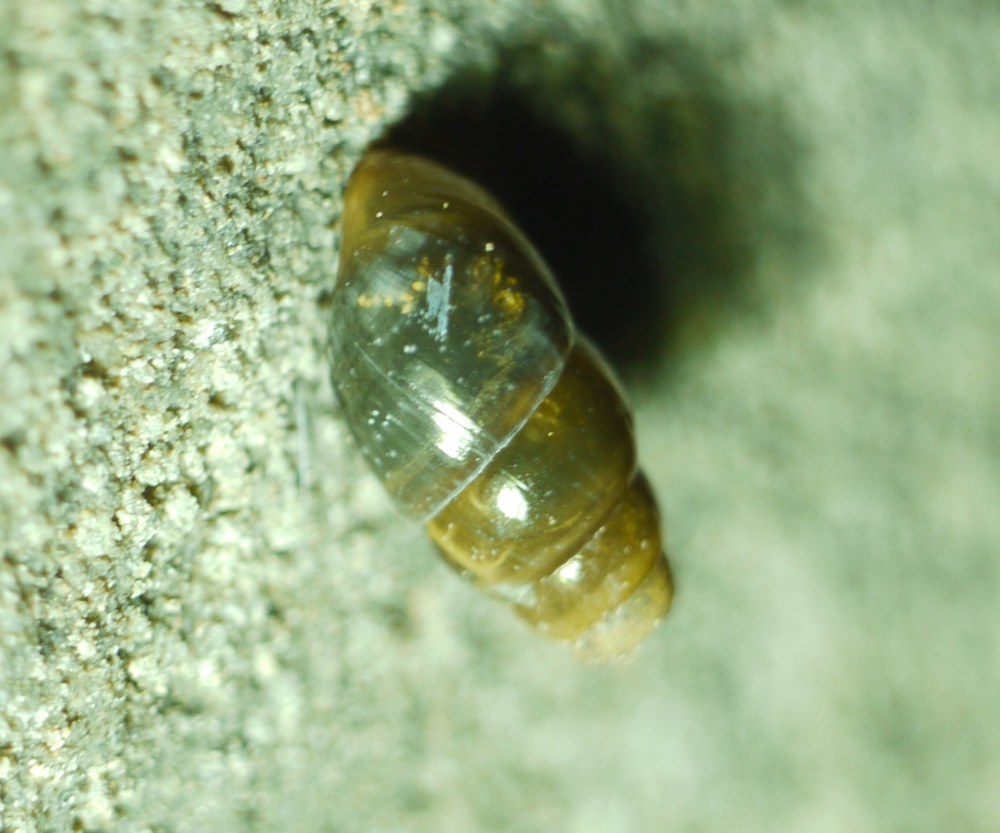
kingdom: Animalia
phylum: Mollusca
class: Gastropoda
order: Stylommatophora
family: Cochlicopidae
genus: Cochlicopa
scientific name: Cochlicopa
